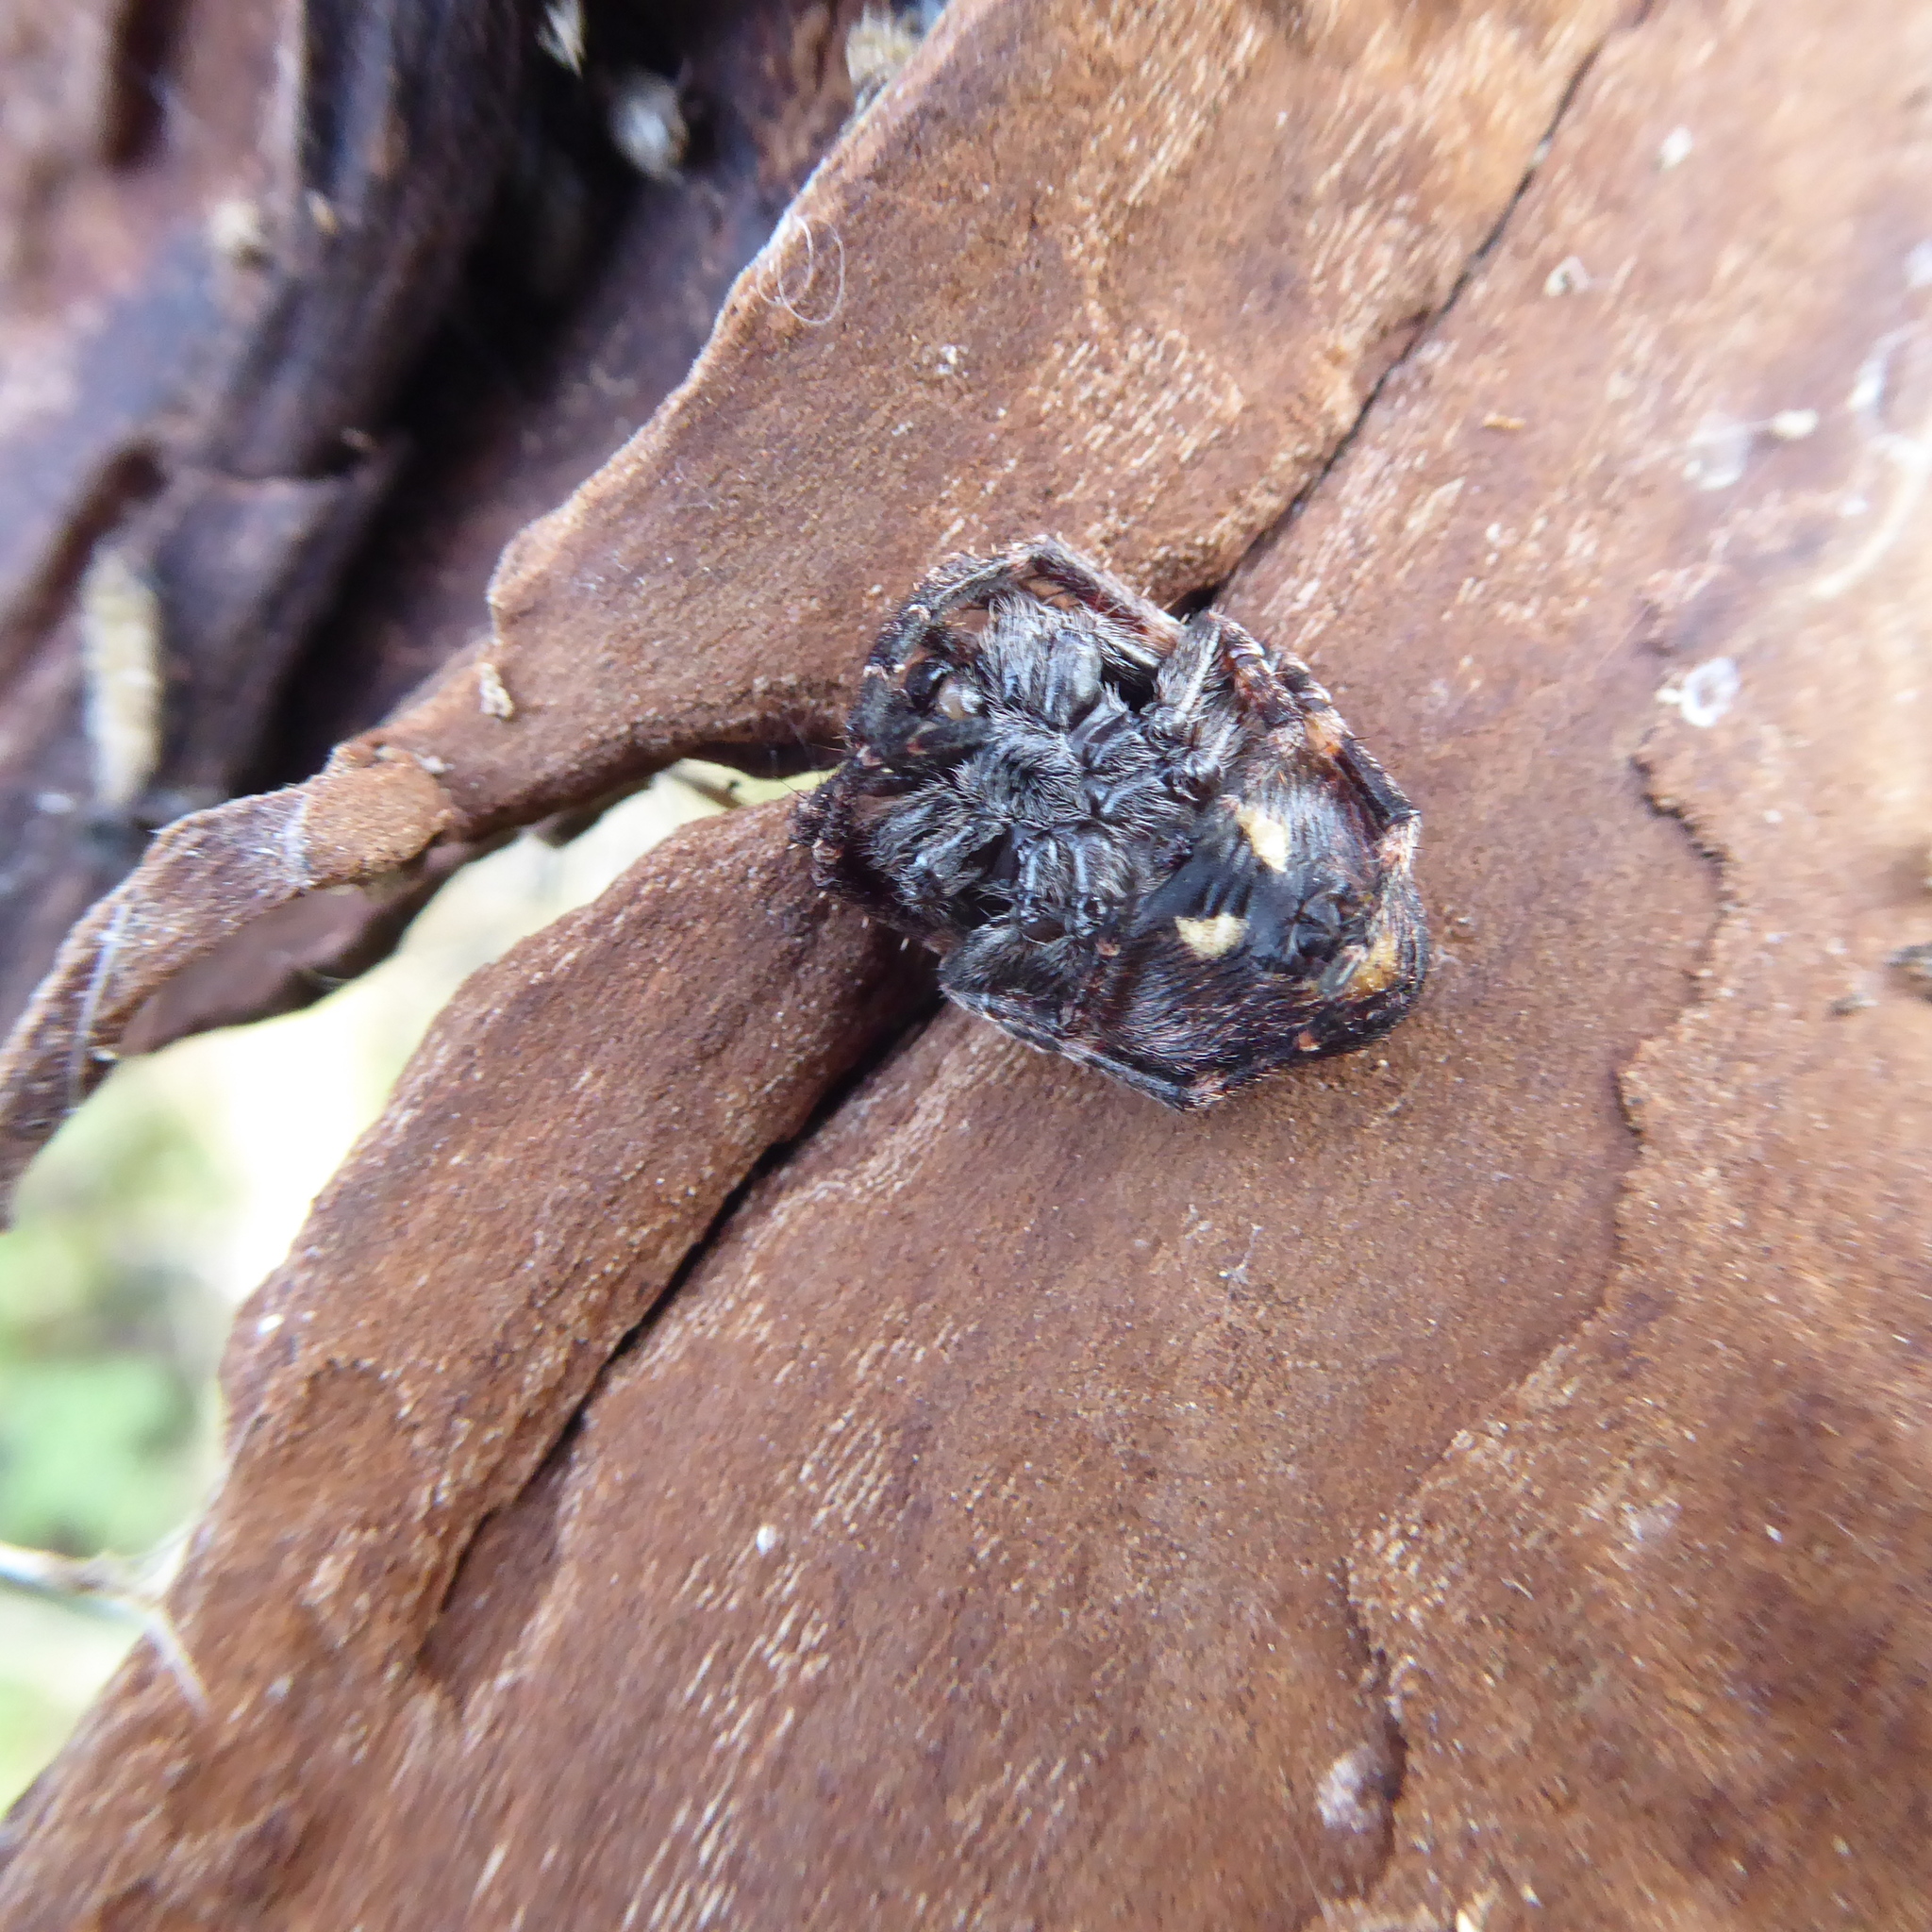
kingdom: Animalia
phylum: Arthropoda
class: Arachnida
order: Araneae
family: Araneidae
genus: Nuctenea
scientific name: Nuctenea umbratica
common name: Toad spider
